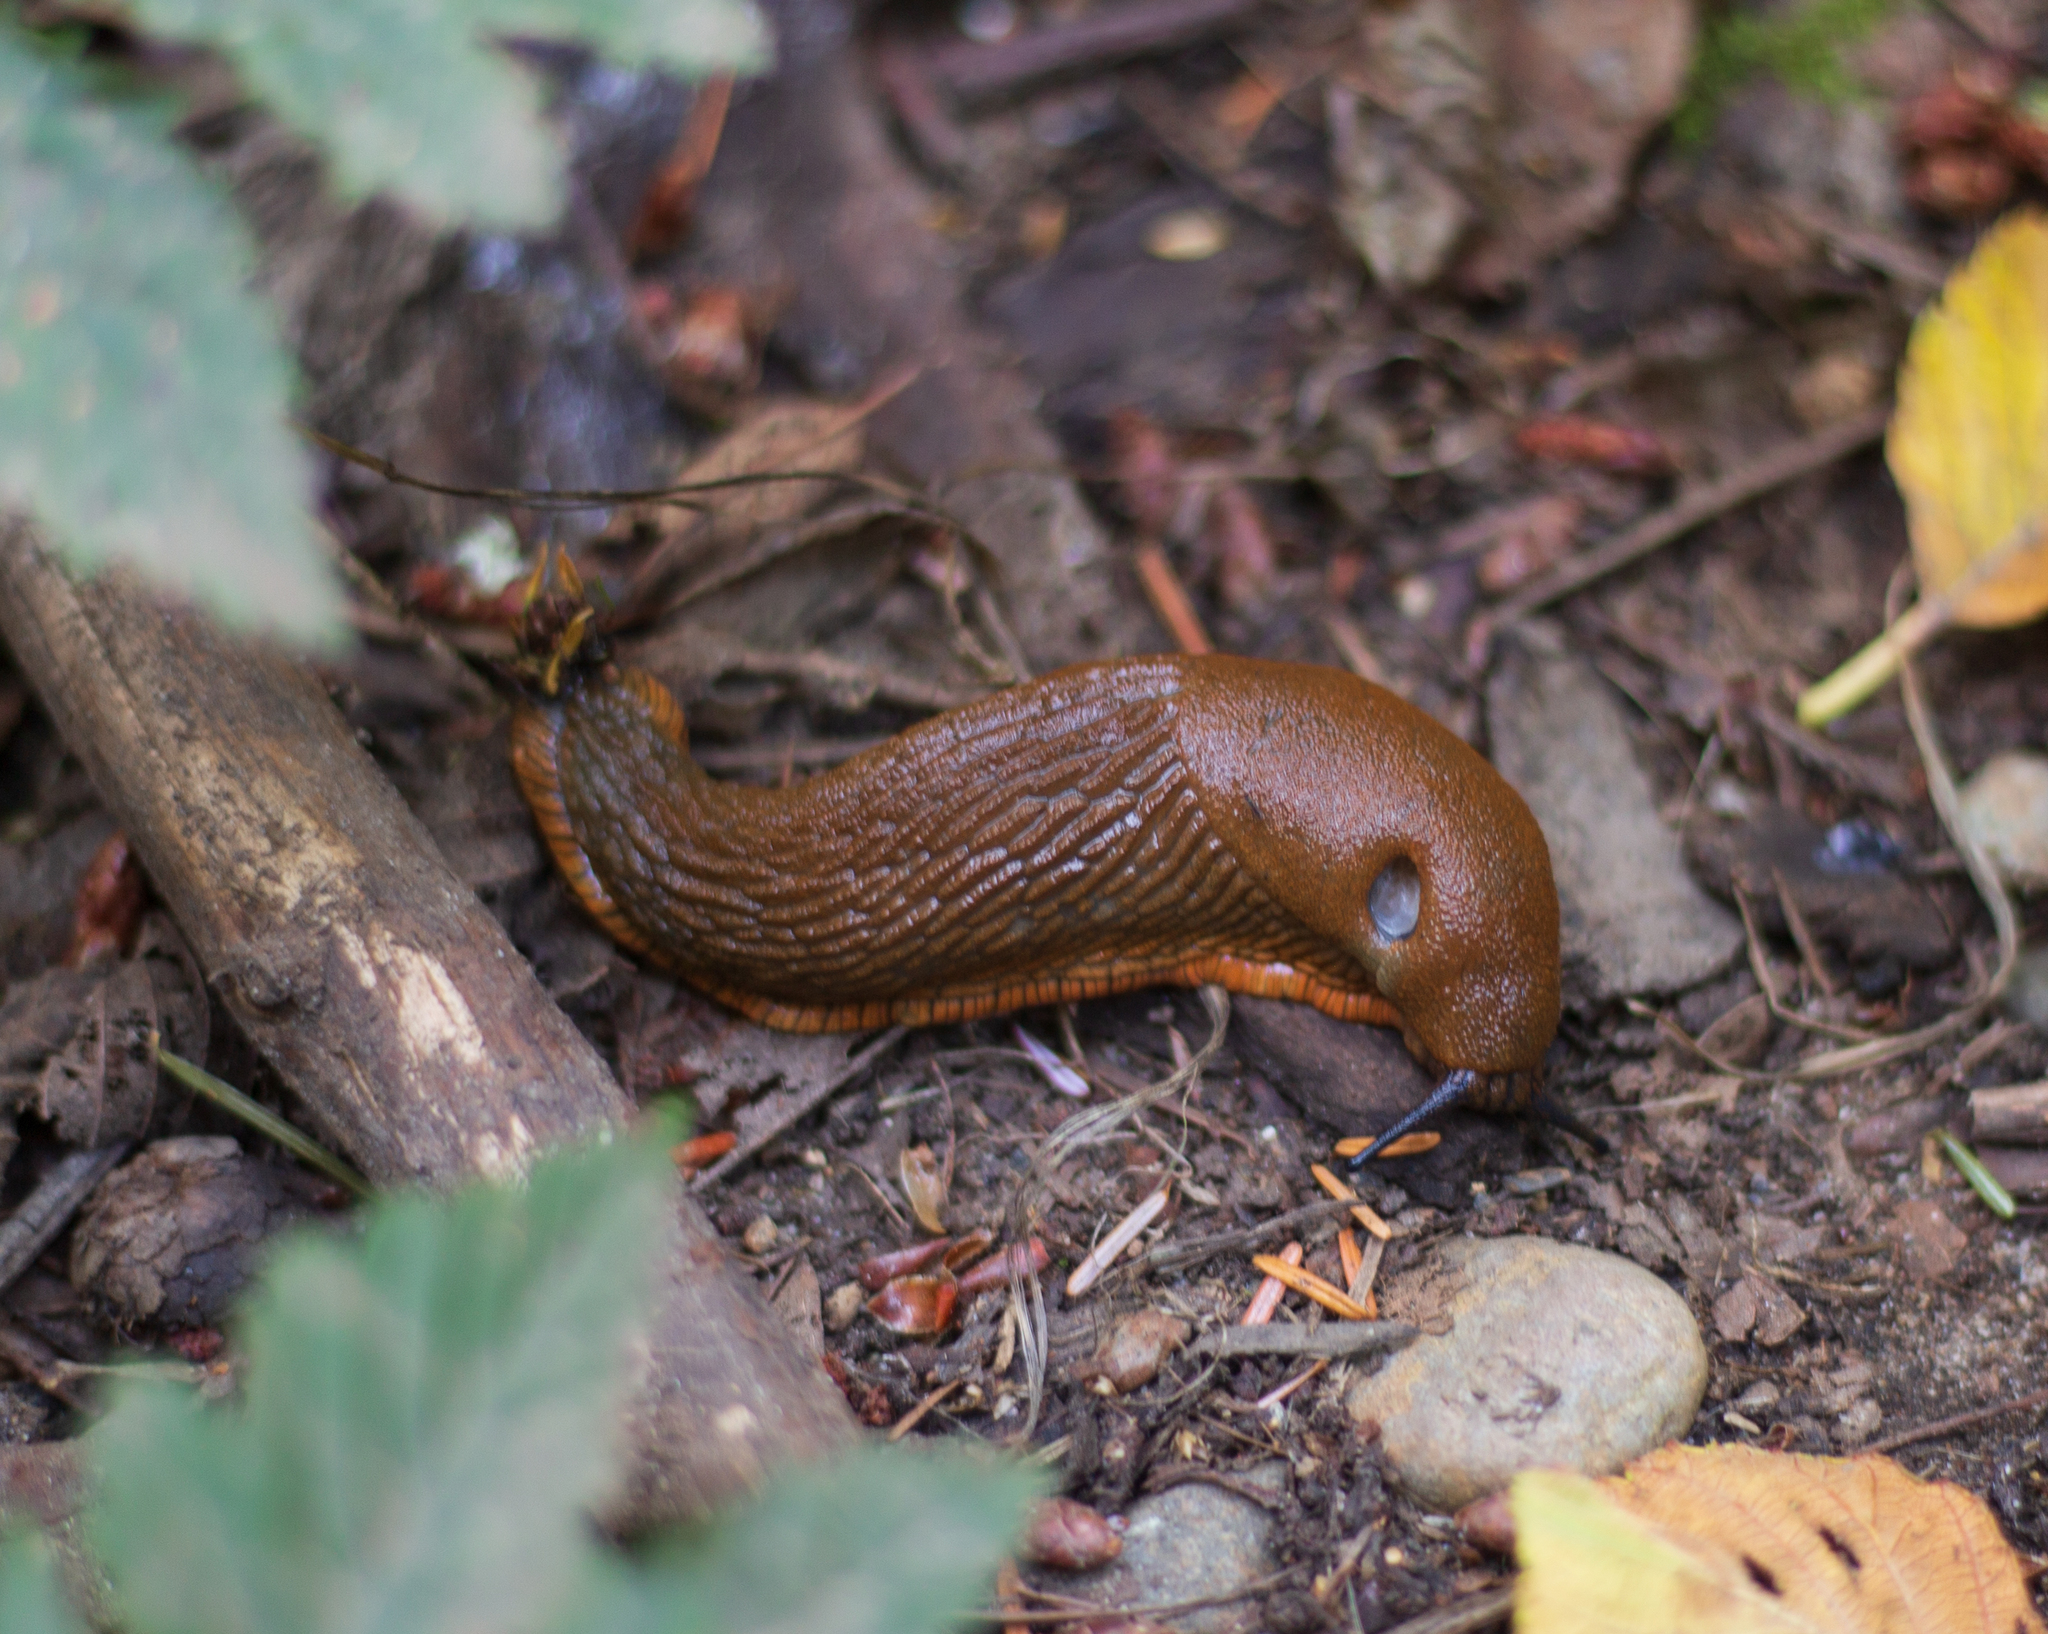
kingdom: Animalia
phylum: Mollusca
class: Gastropoda
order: Stylommatophora
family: Arionidae
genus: Arion
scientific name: Arion
